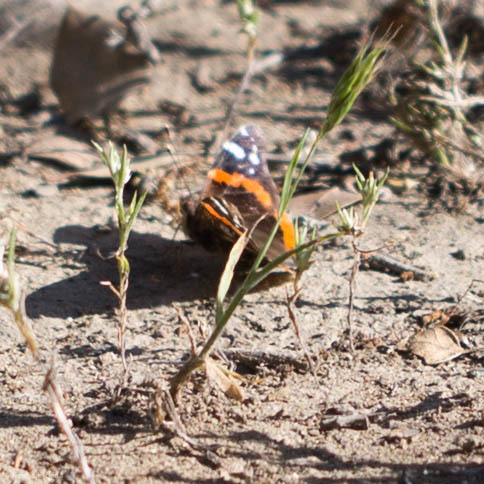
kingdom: Animalia
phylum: Arthropoda
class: Insecta
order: Lepidoptera
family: Nymphalidae
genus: Vanessa
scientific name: Vanessa atalanta
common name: Red admiral
